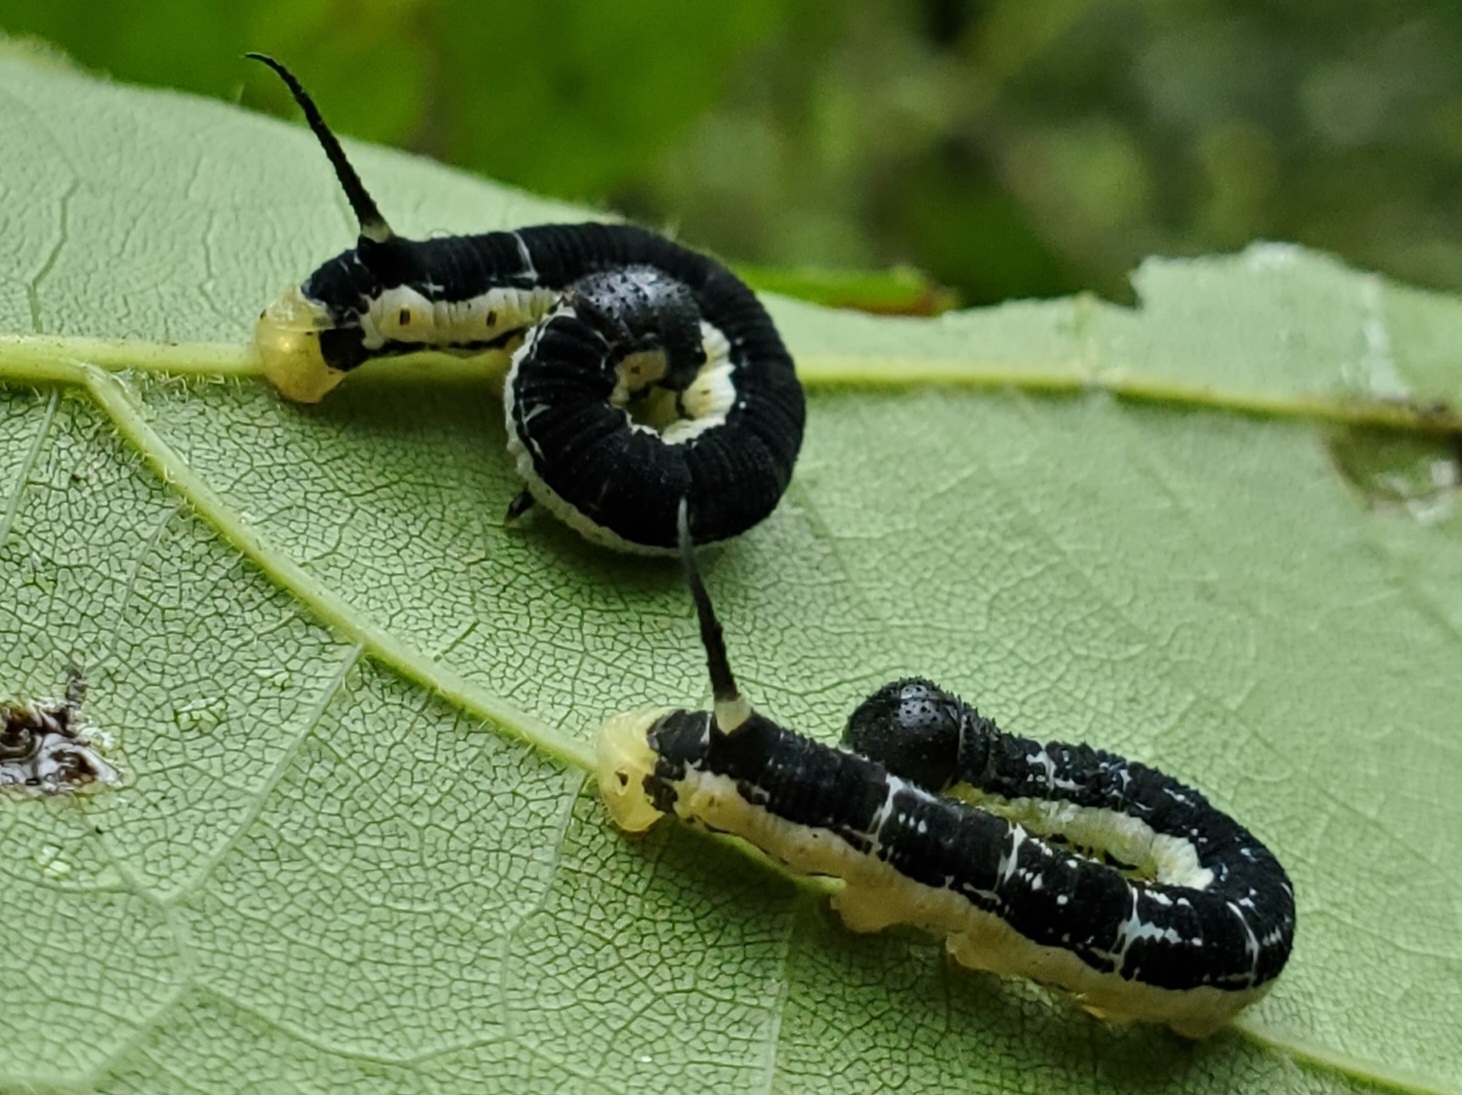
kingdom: Animalia
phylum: Arthropoda
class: Insecta
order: Lepidoptera
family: Sphingidae
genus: Ceratomia
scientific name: Ceratomia catalpae
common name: Catalpa hornworm
